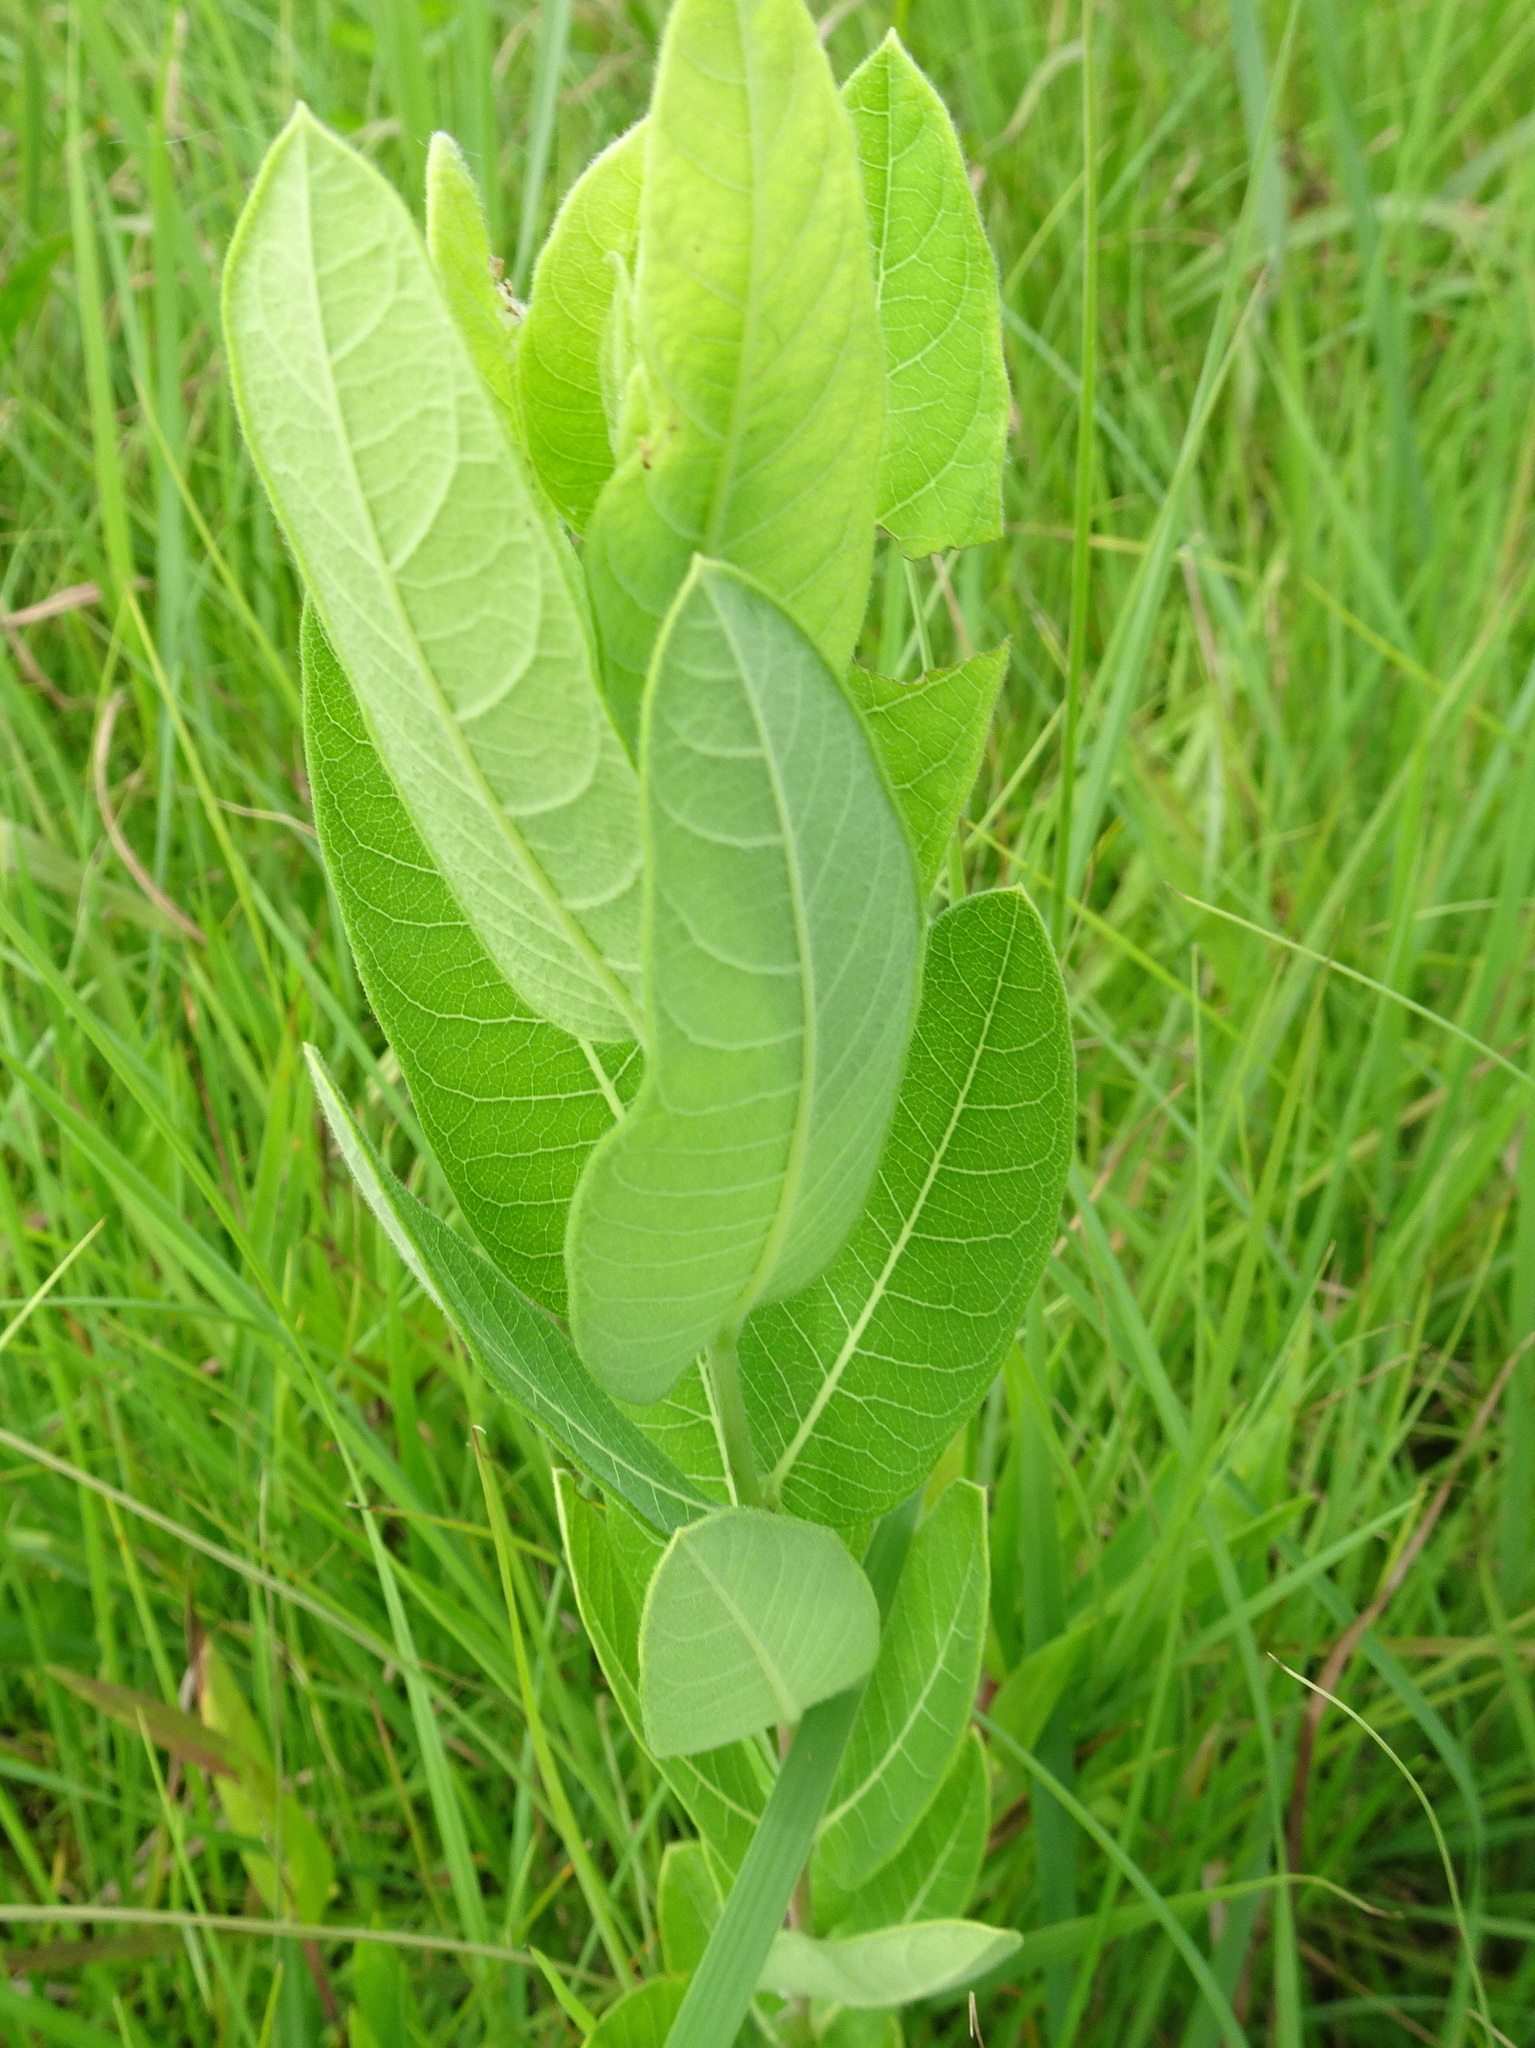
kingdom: Plantae
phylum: Tracheophyta
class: Magnoliopsida
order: Gentianales
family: Apocynaceae
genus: Apocynum
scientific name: Apocynum cannabinum
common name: Hemp dogbane
